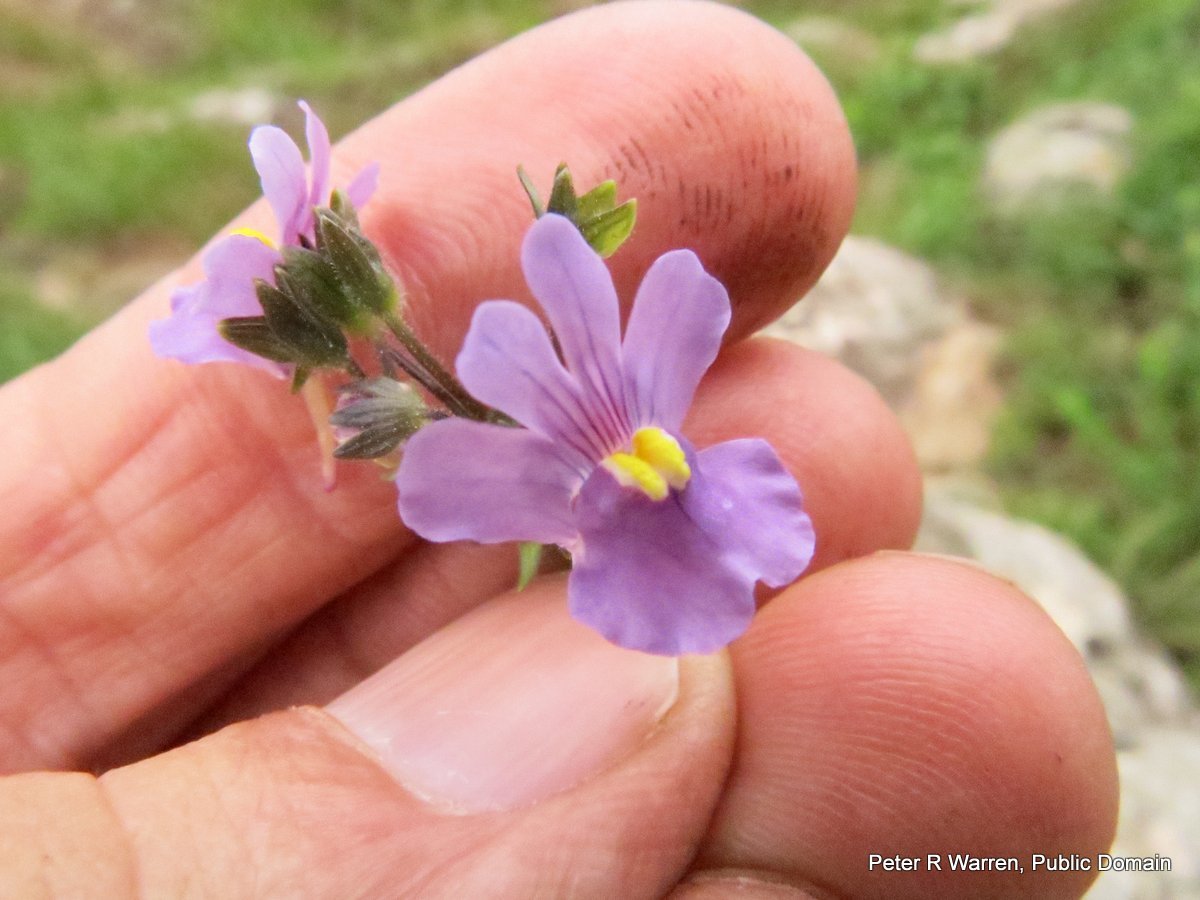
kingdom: Plantae
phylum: Tracheophyta
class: Magnoliopsida
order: Lamiales
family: Scrophulariaceae
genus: Nemesia
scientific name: Nemesia denticulata
